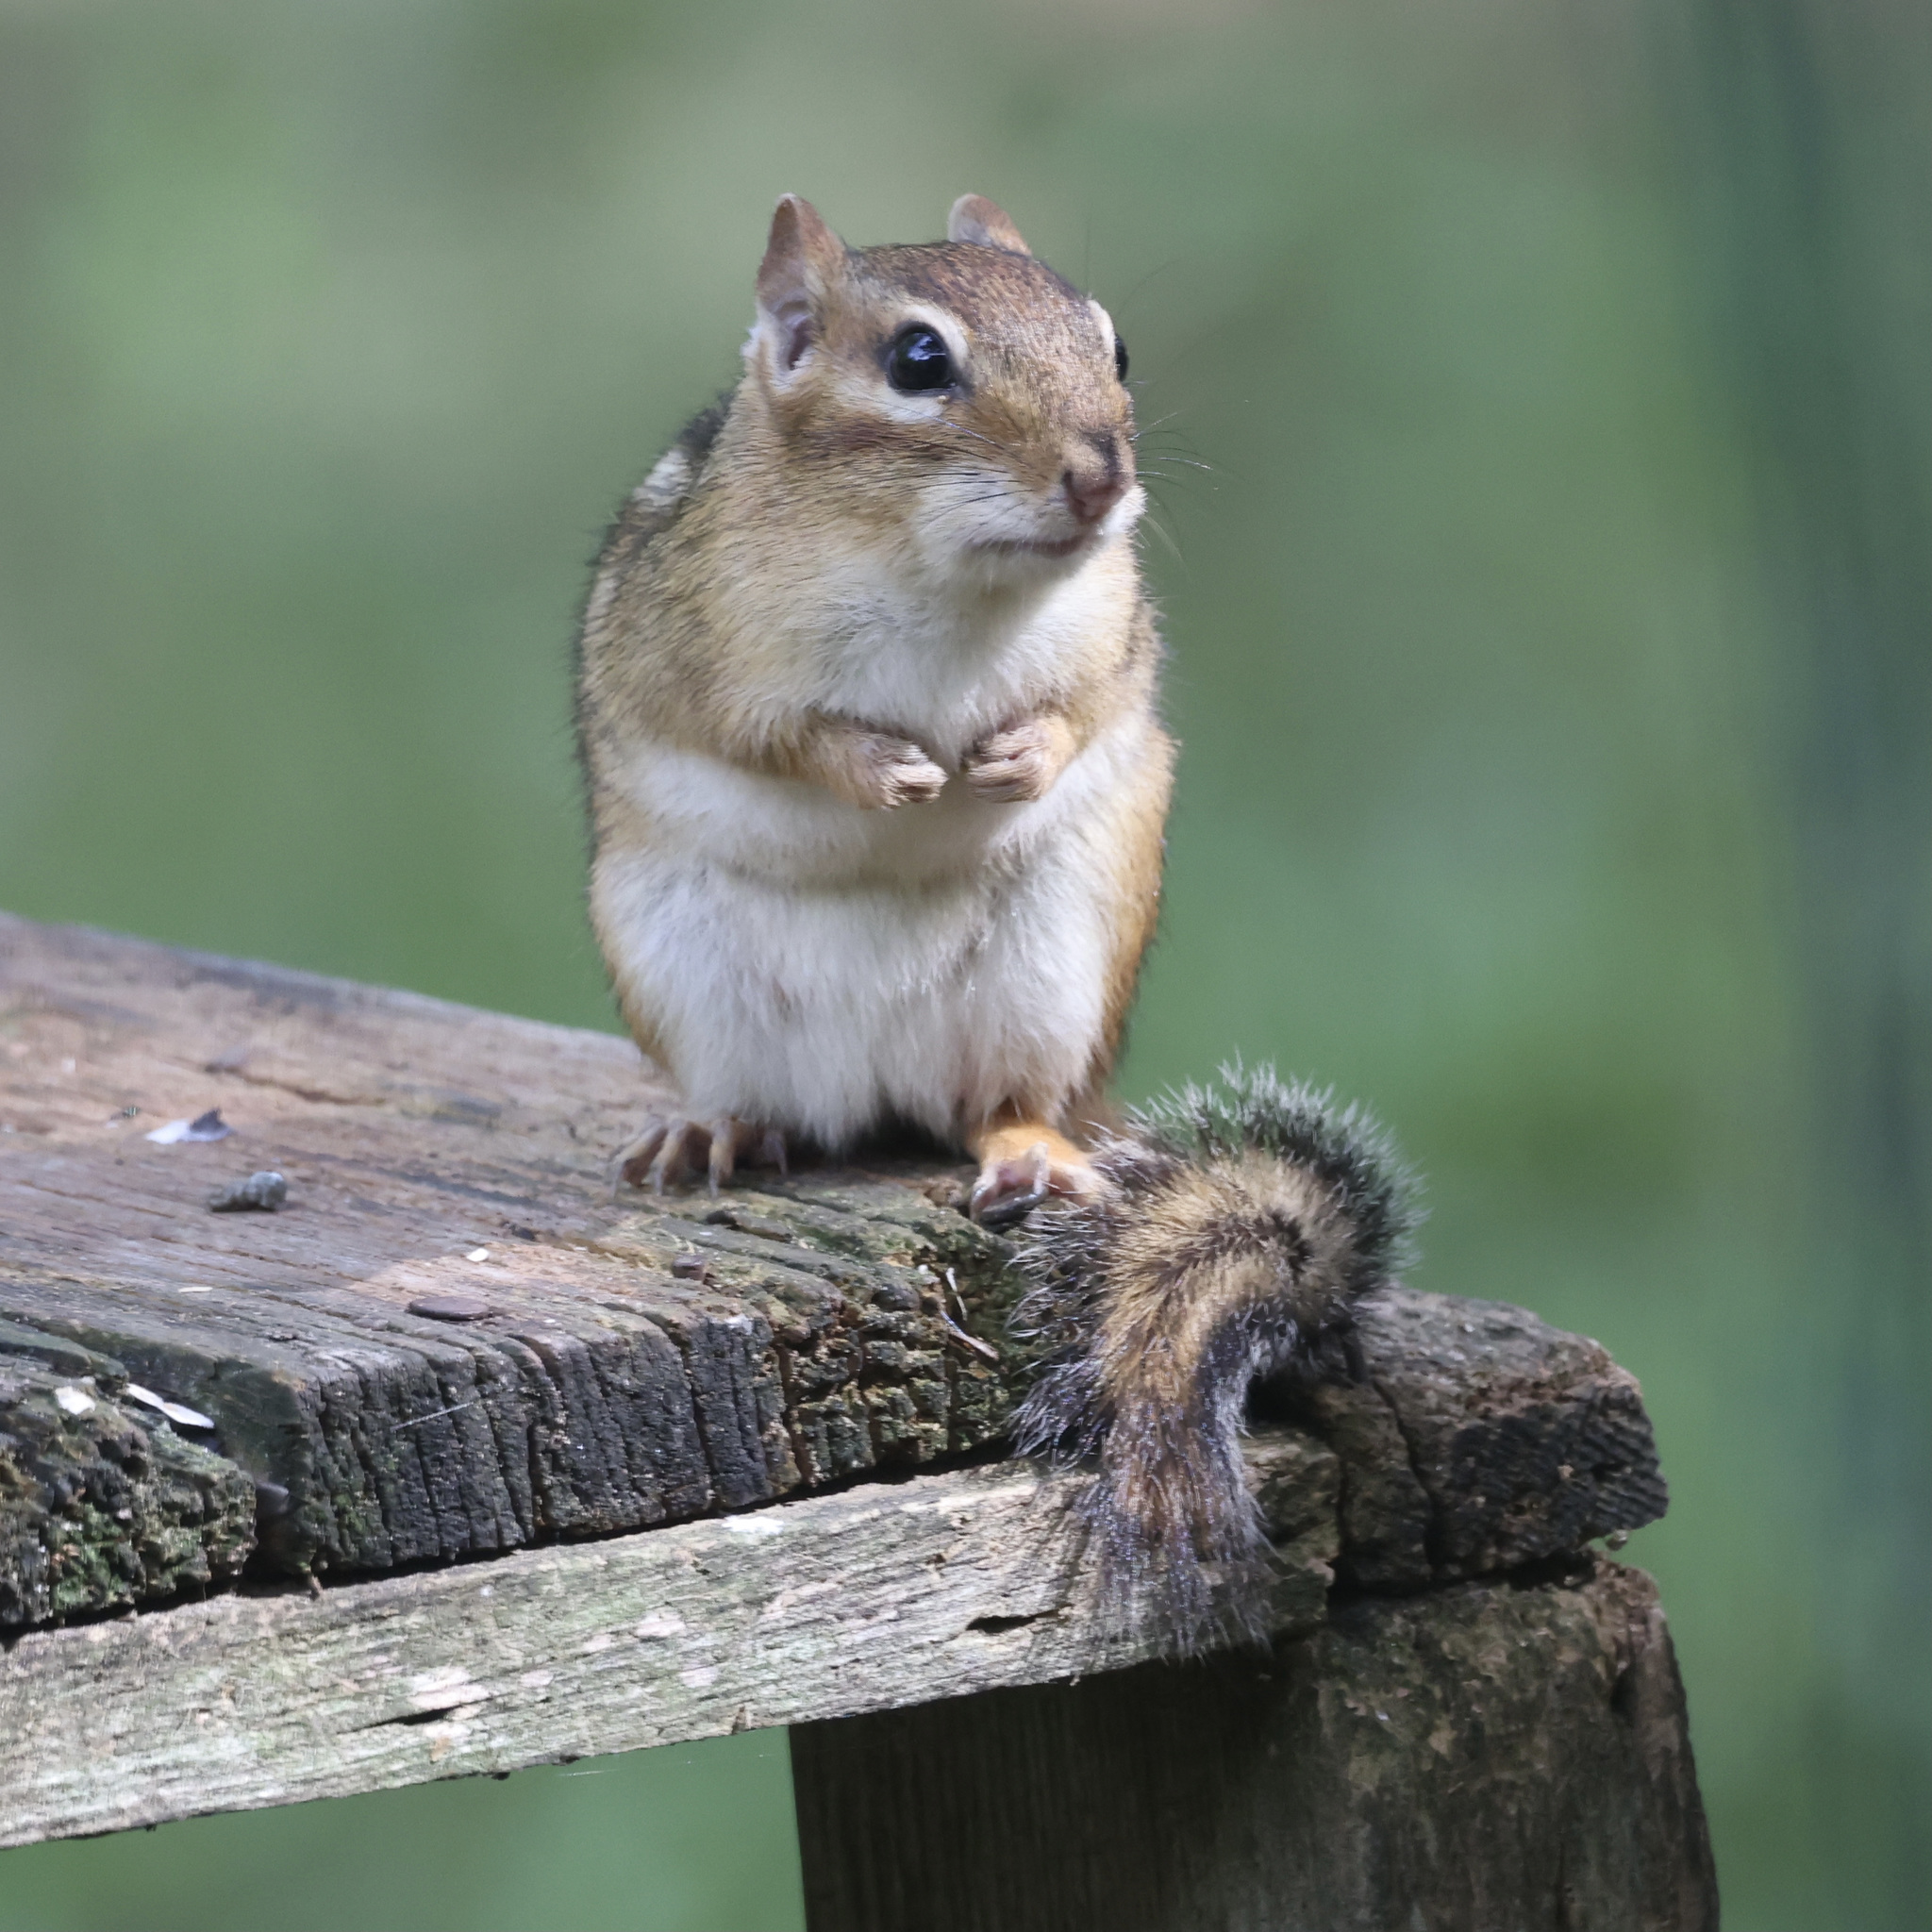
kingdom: Animalia
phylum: Chordata
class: Mammalia
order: Rodentia
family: Sciuridae
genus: Tamias
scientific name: Tamias striatus
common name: Eastern chipmunk
